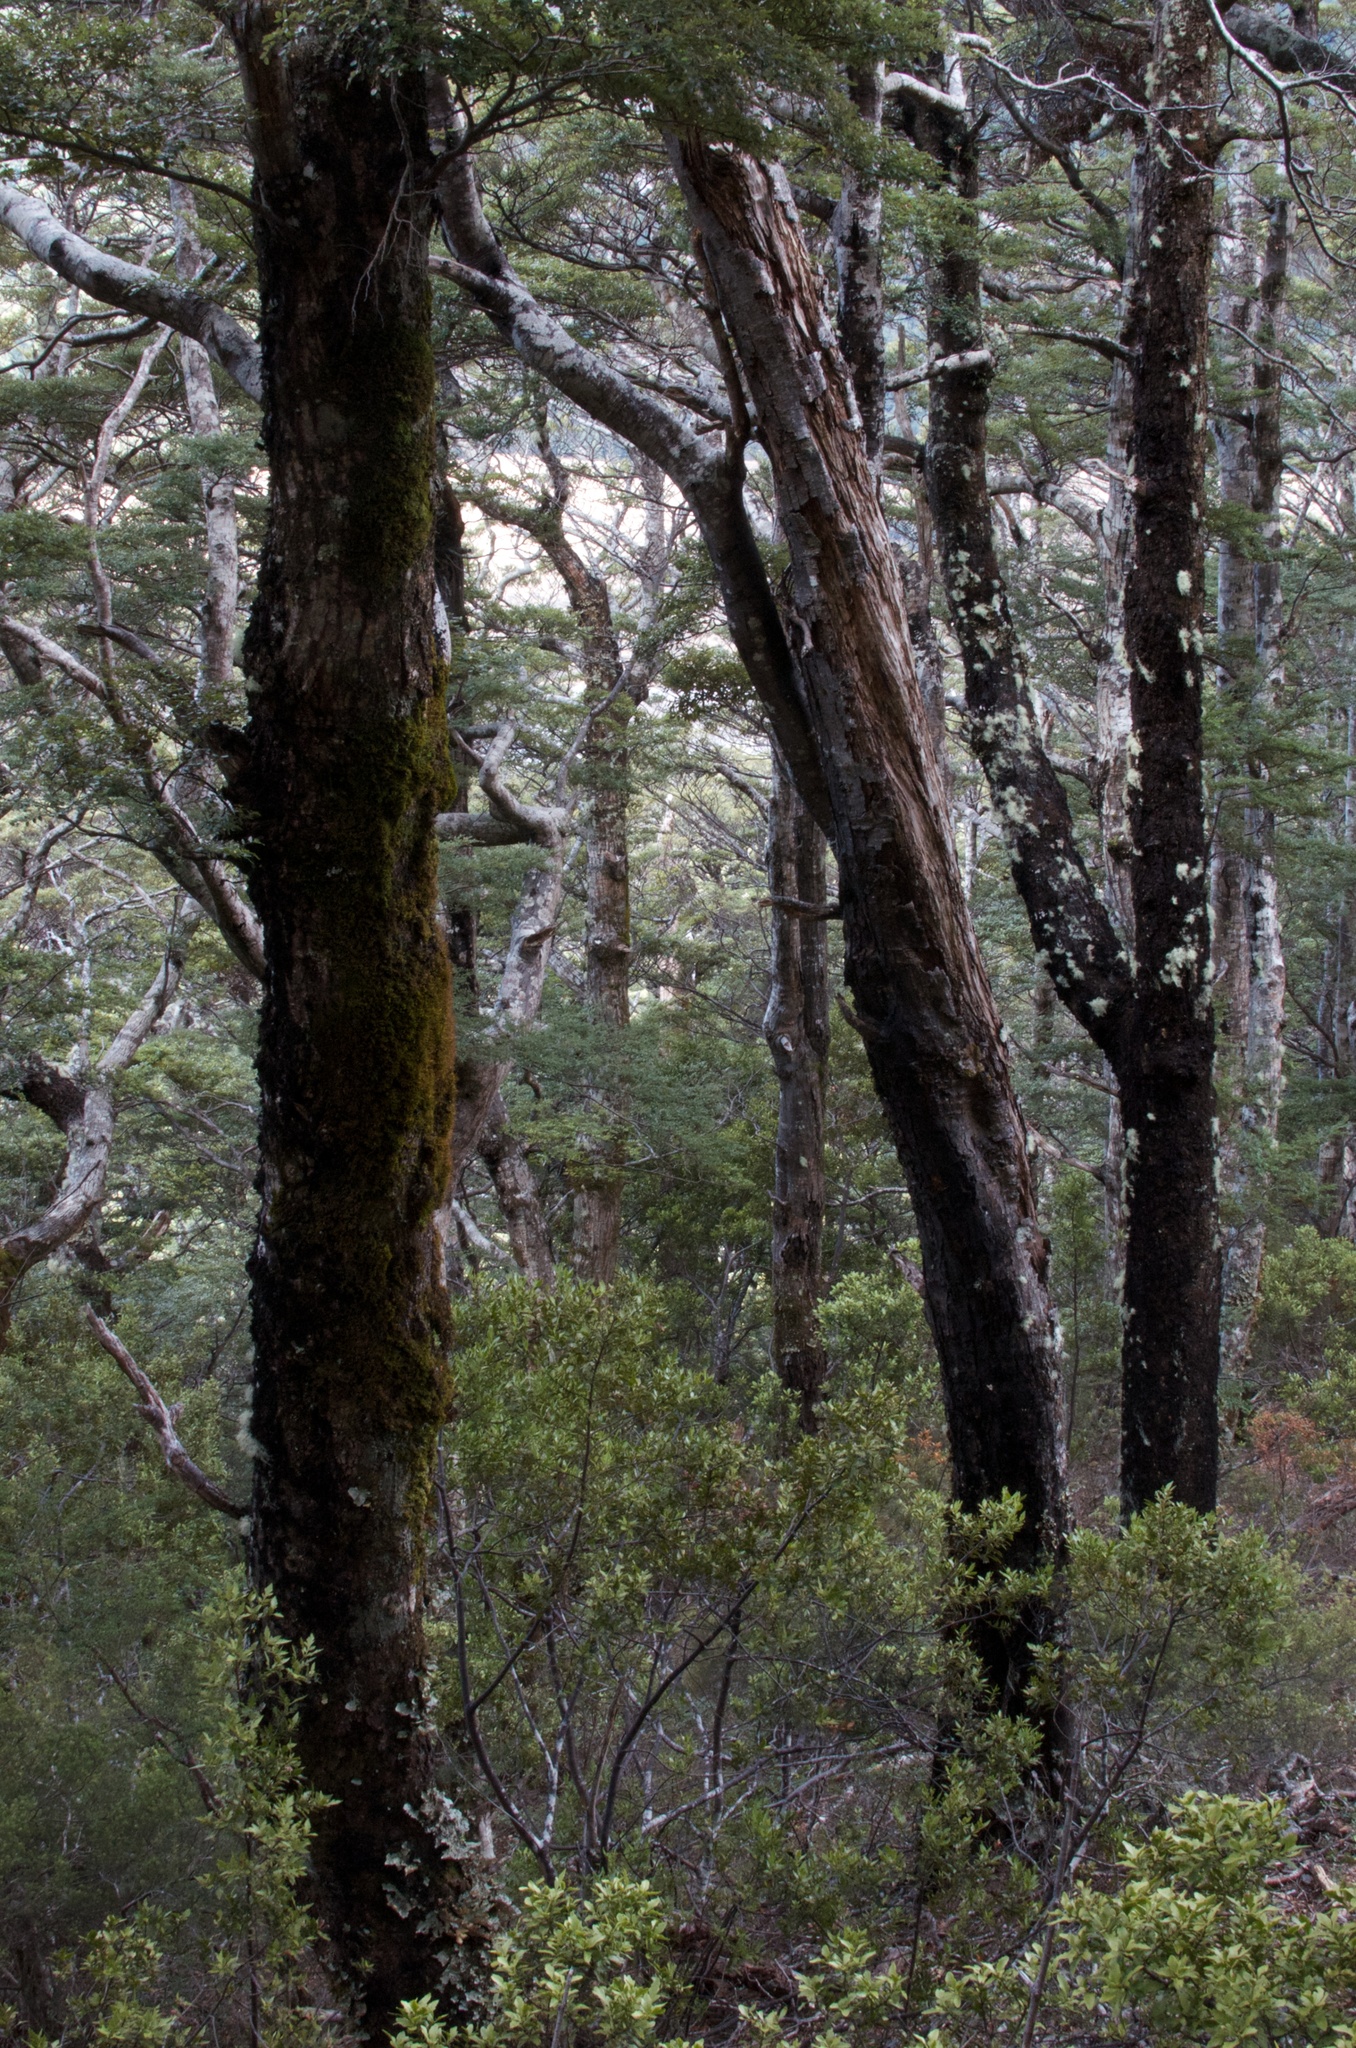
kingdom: Plantae
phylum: Tracheophyta
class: Pinopsida
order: Pinales
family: Phyllocladaceae
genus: Phyllocladus
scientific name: Phyllocladus trichomanoides
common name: Celery pine
